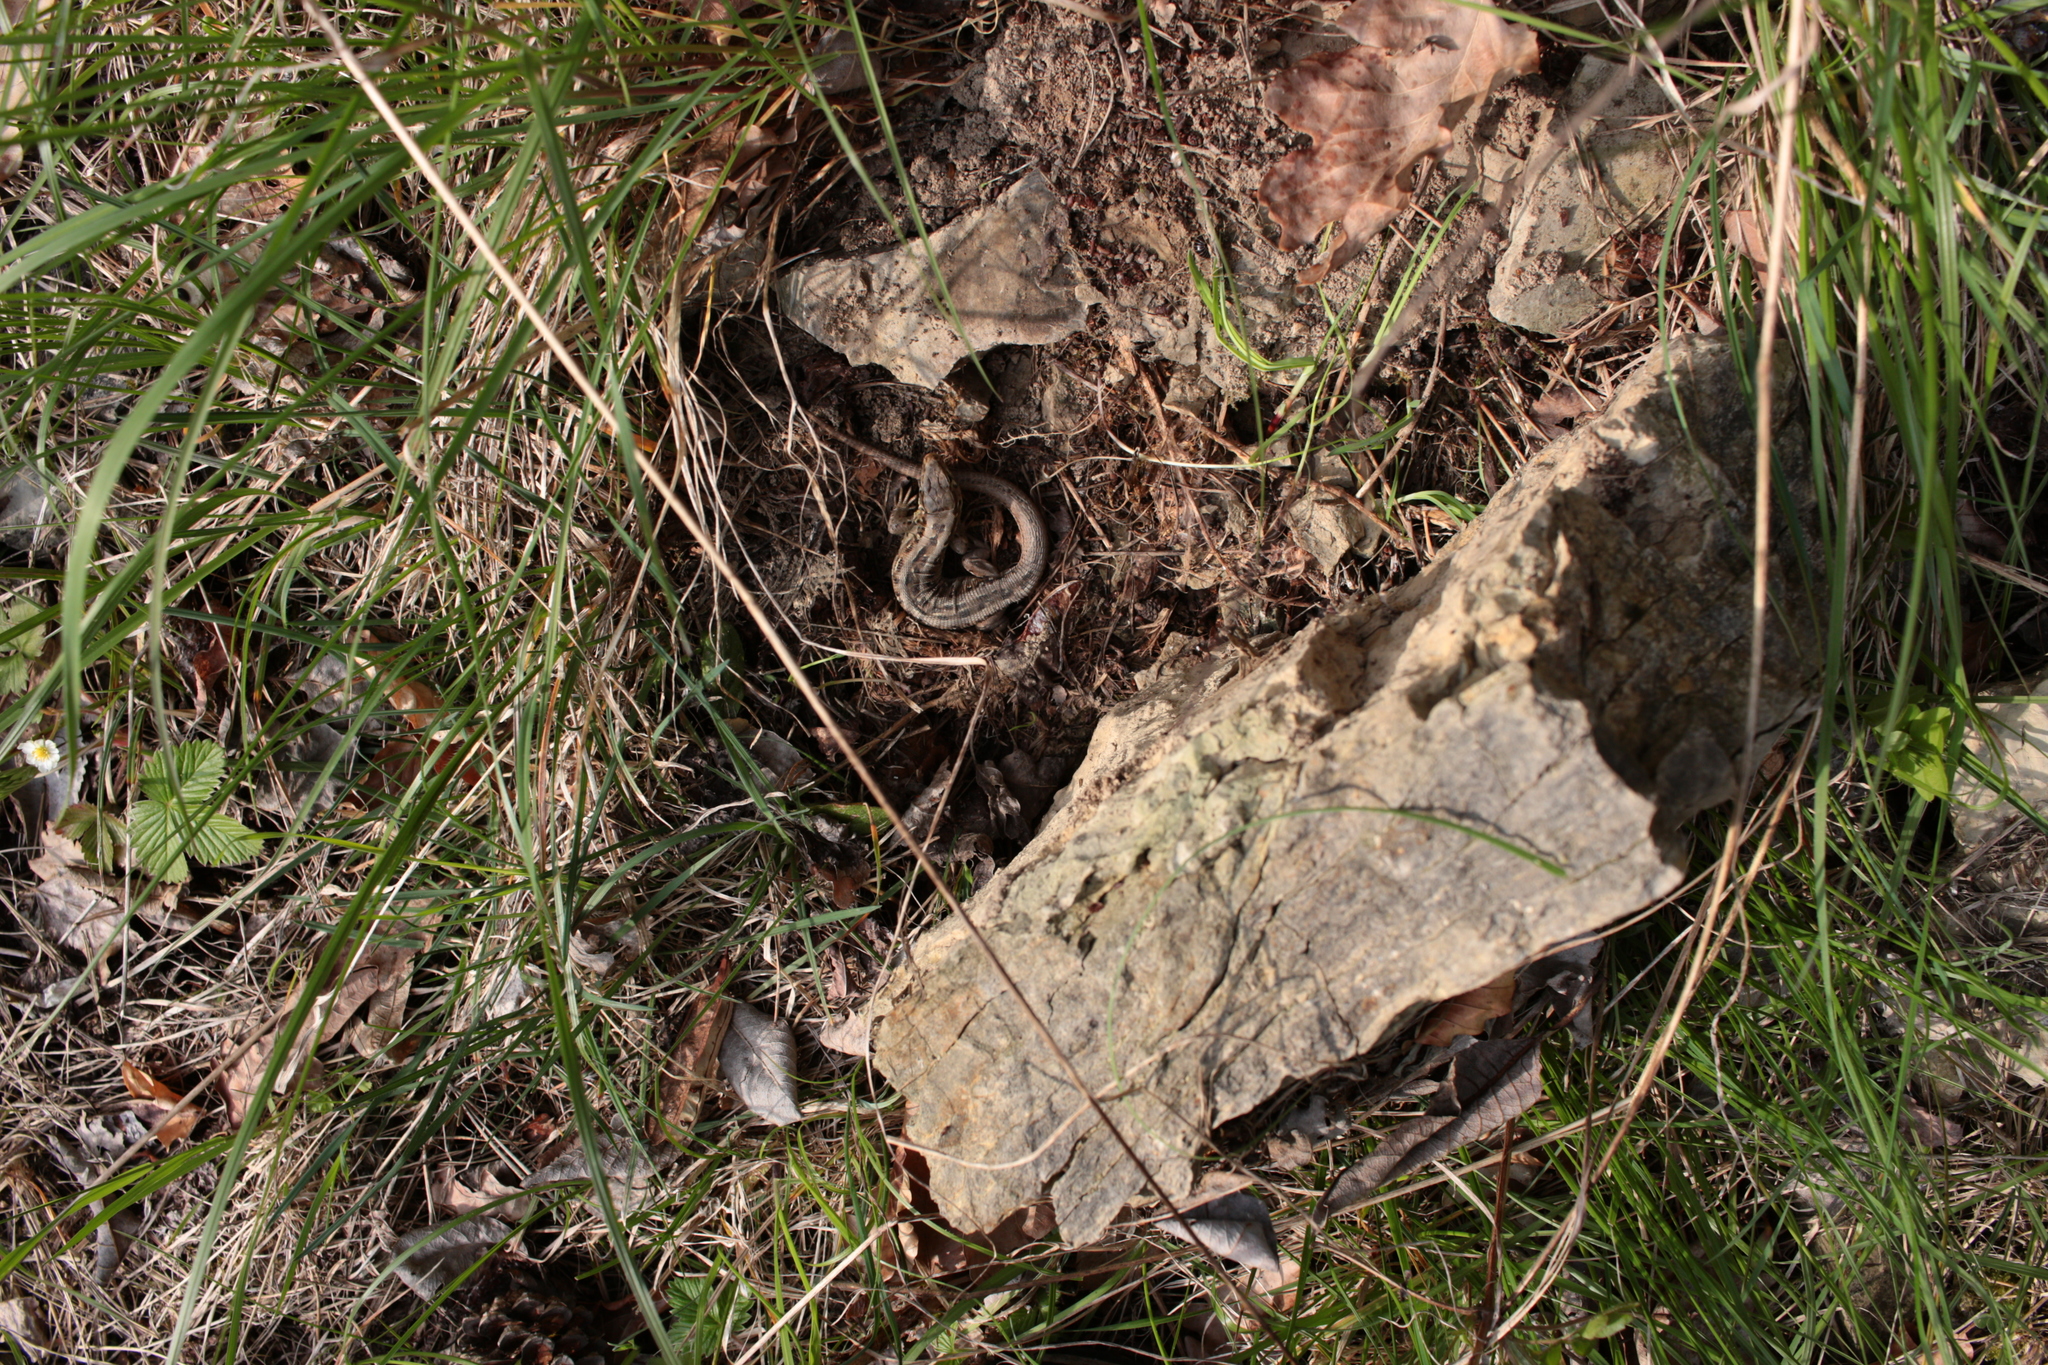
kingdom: Animalia
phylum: Chordata
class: Squamata
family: Lacertidae
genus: Lacerta
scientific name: Lacerta agilis
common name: Sand lizard
